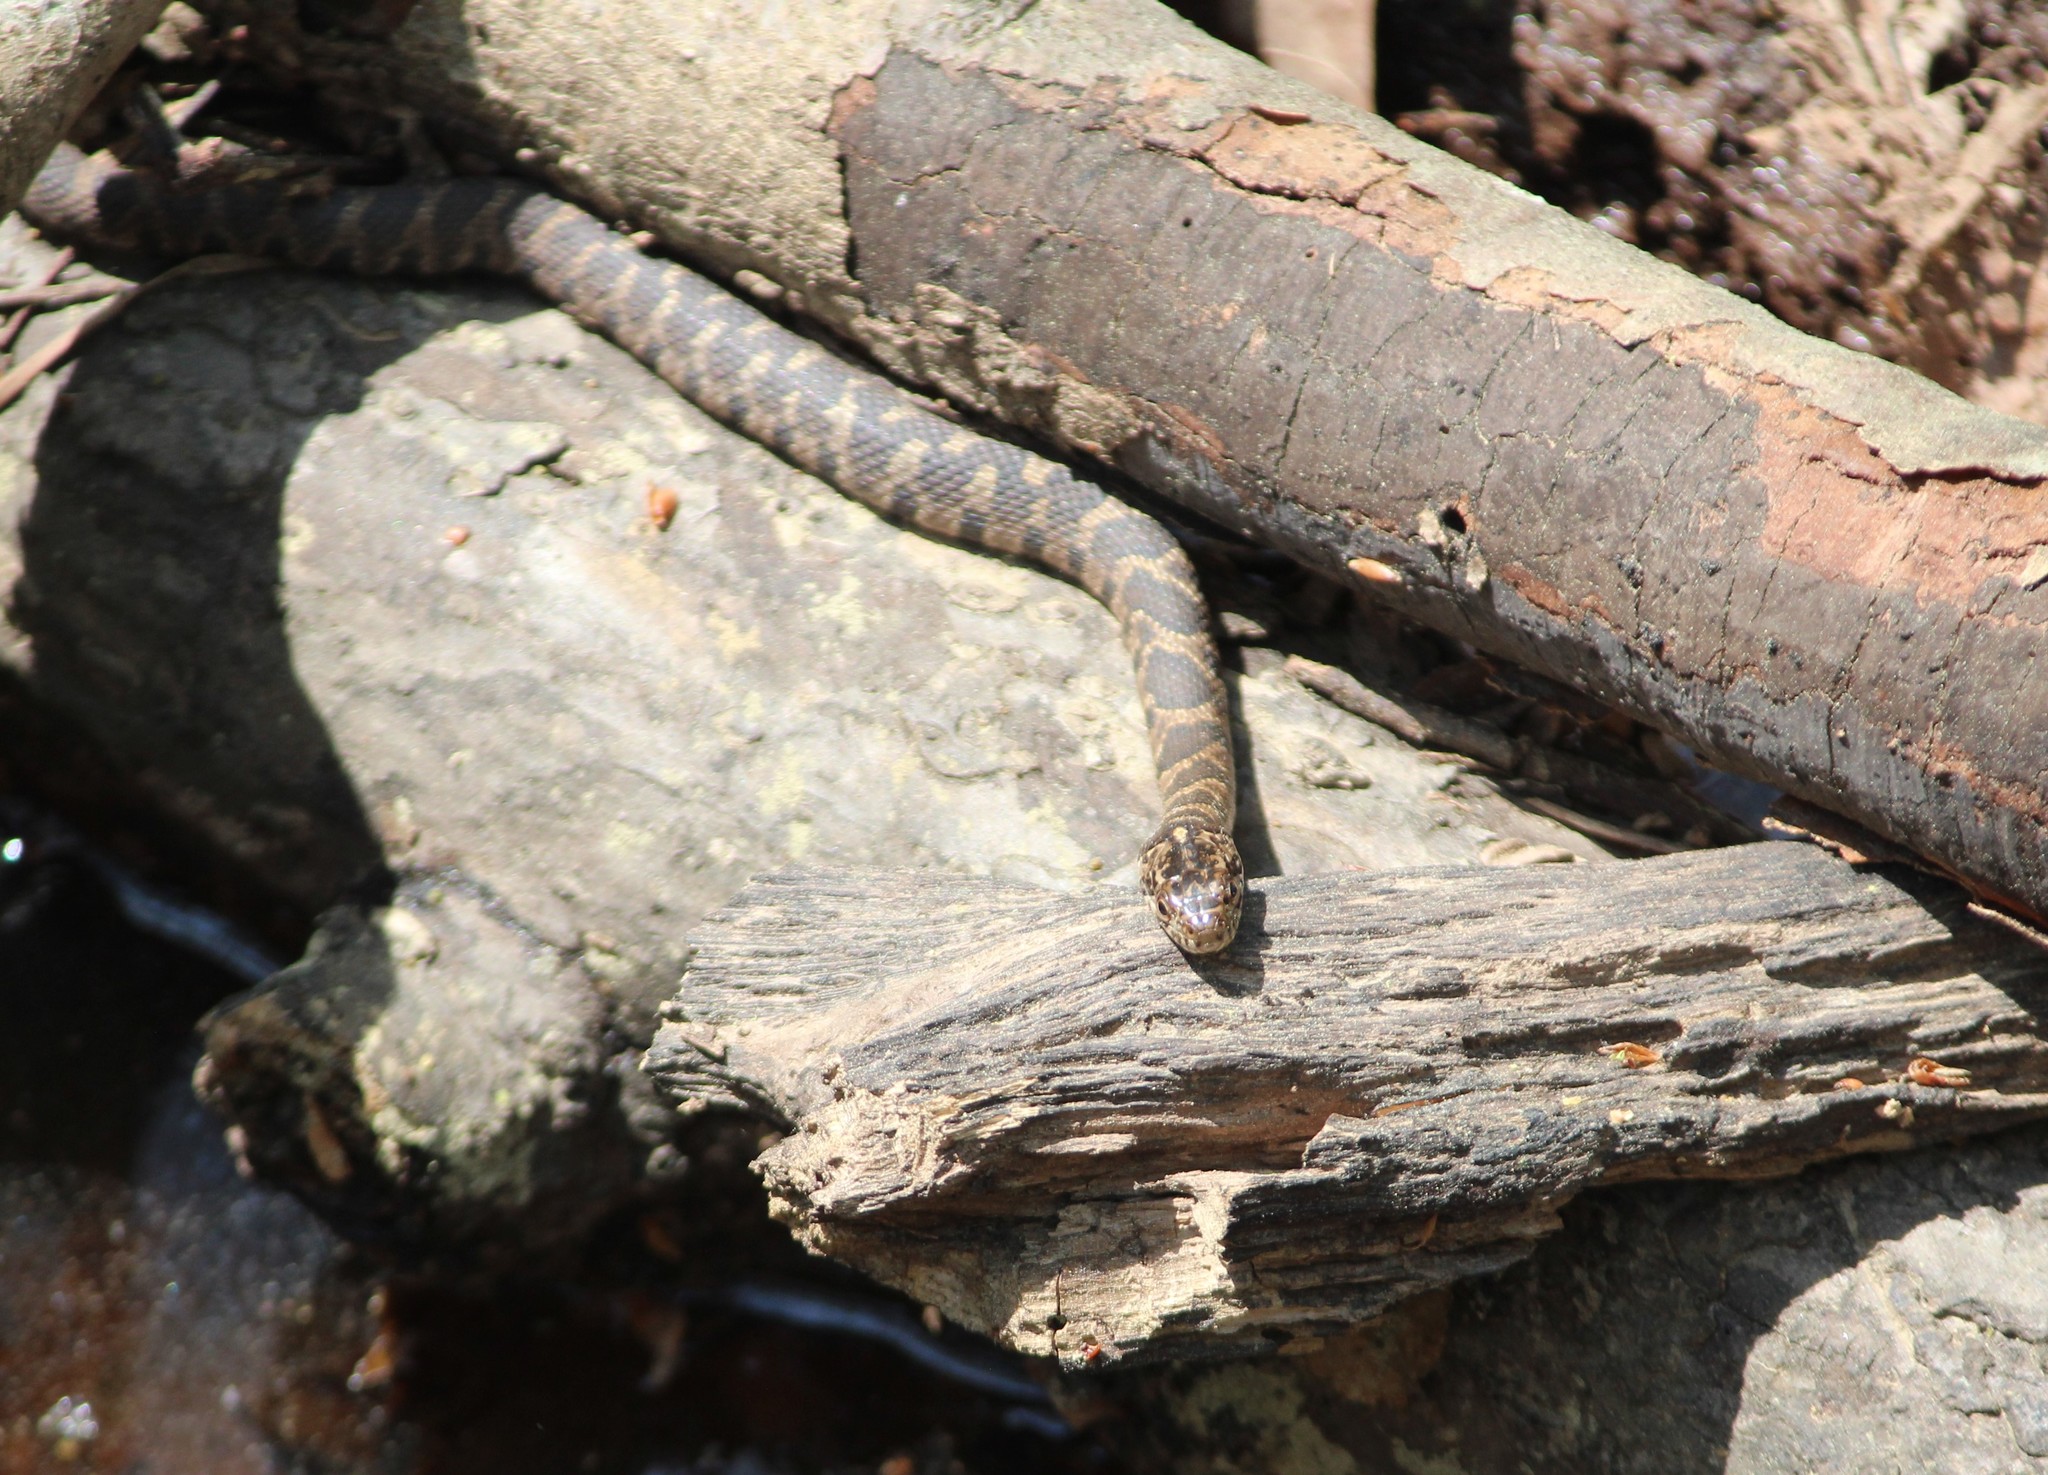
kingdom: Animalia
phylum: Chordata
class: Squamata
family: Colubridae
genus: Nerodia
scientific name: Nerodia sipedon
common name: Northern water snake
